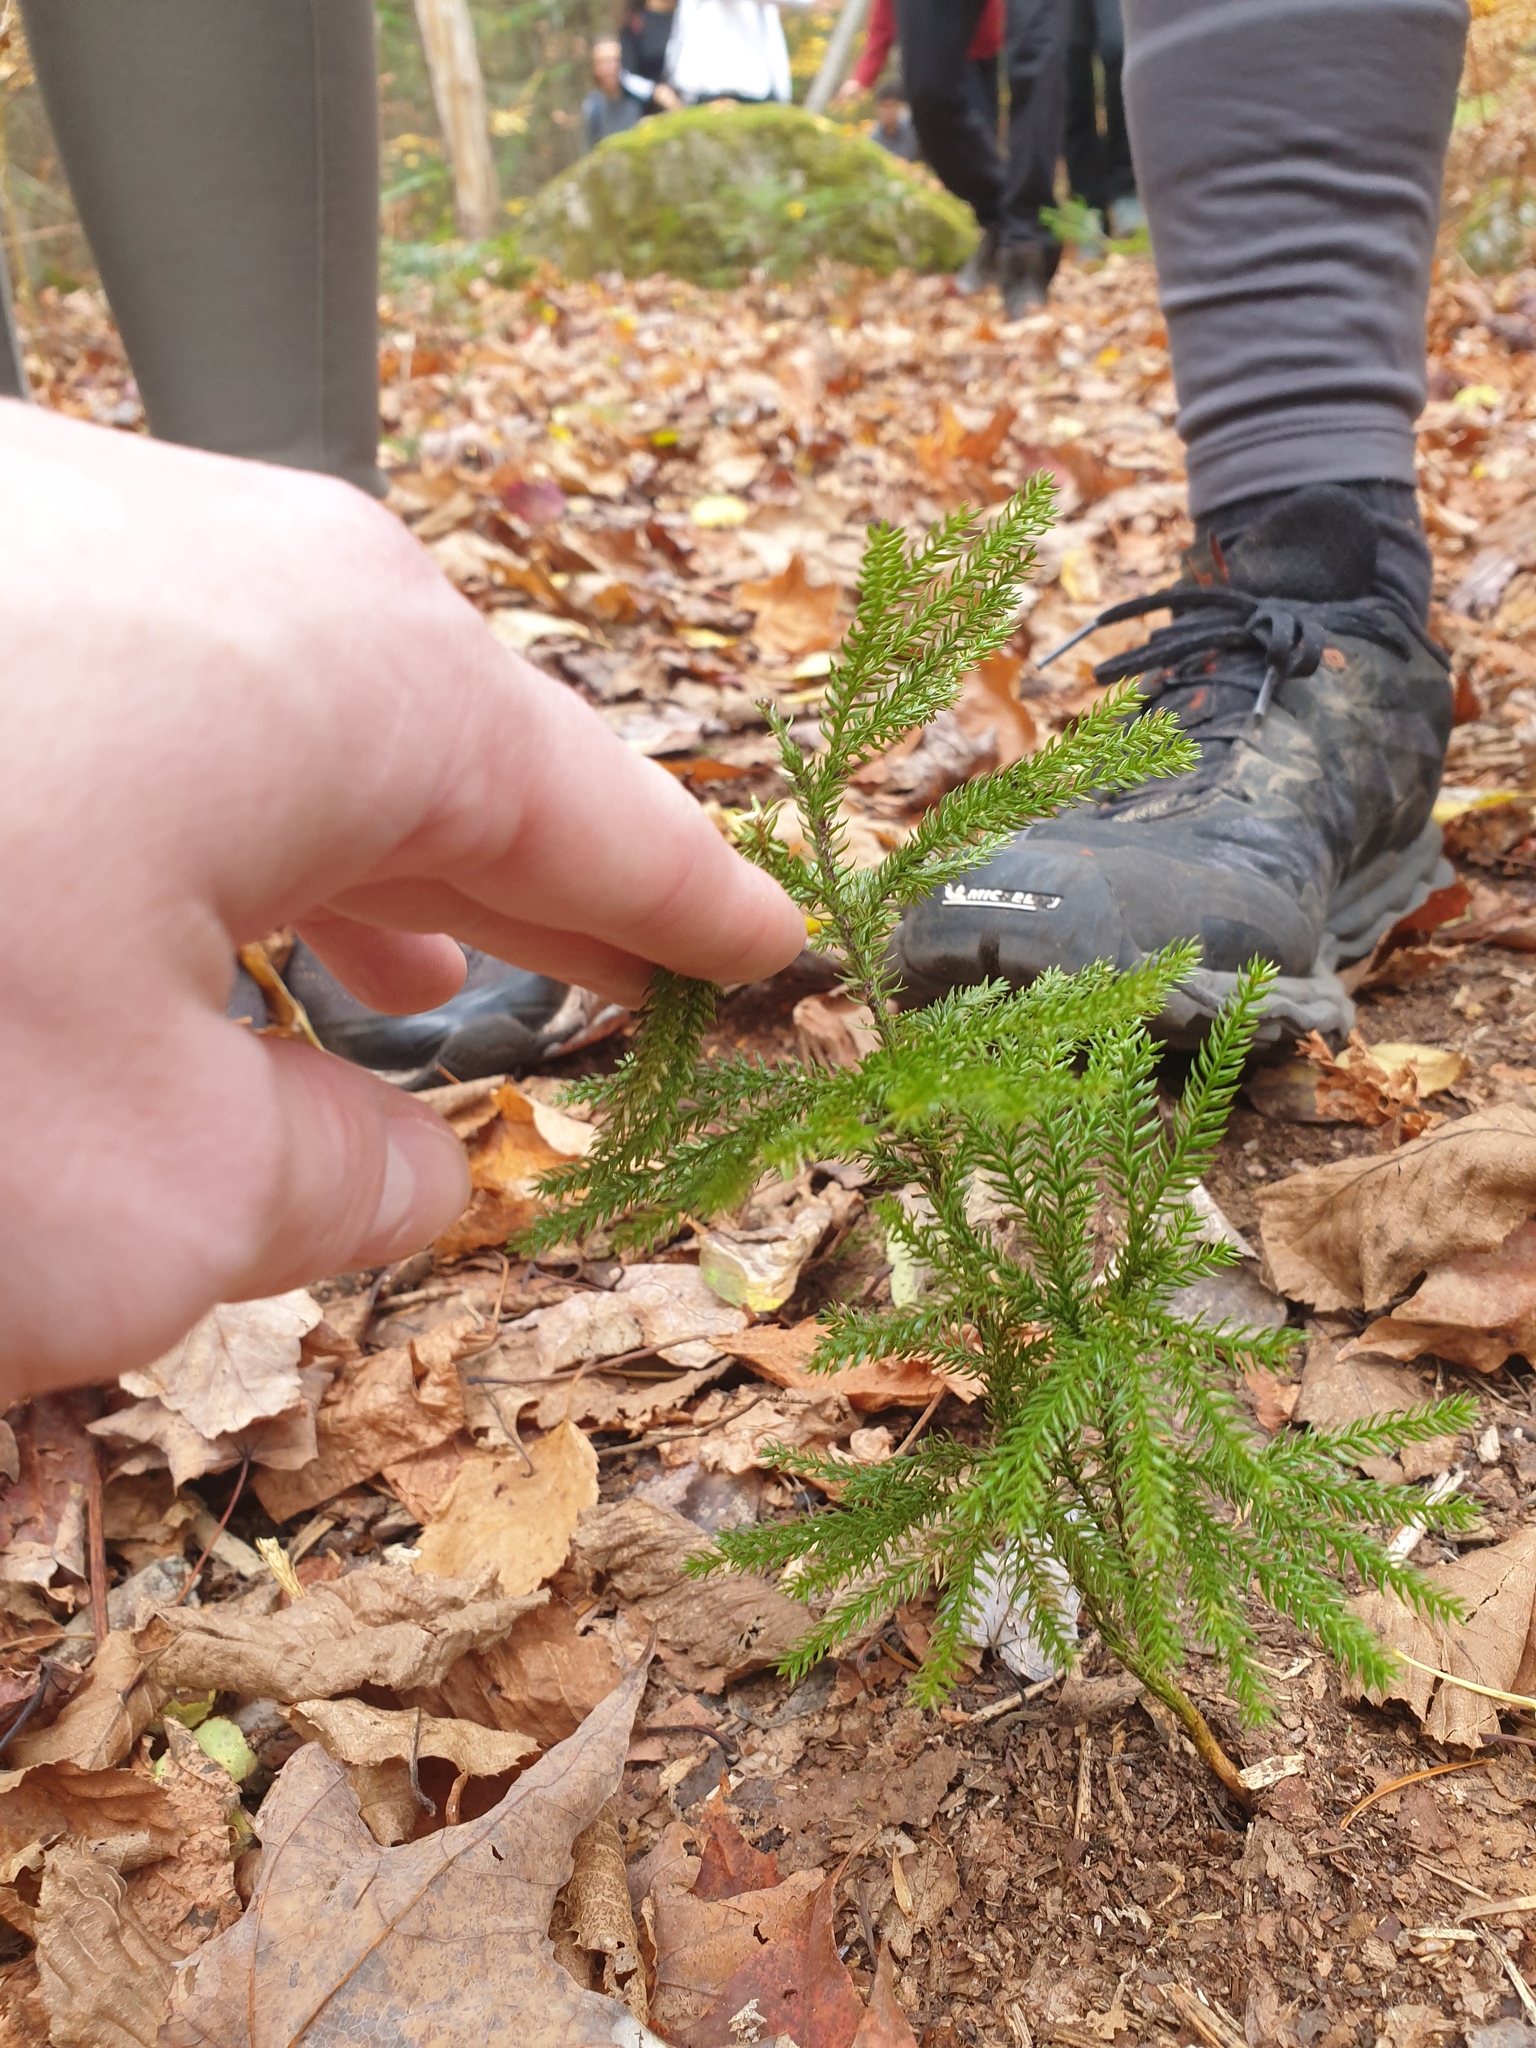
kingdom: Plantae
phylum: Tracheophyta
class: Lycopodiopsida
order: Lycopodiales
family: Lycopodiaceae
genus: Dendrolycopodium
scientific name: Dendrolycopodium dendroideum
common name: Northern tree-clubmoss
